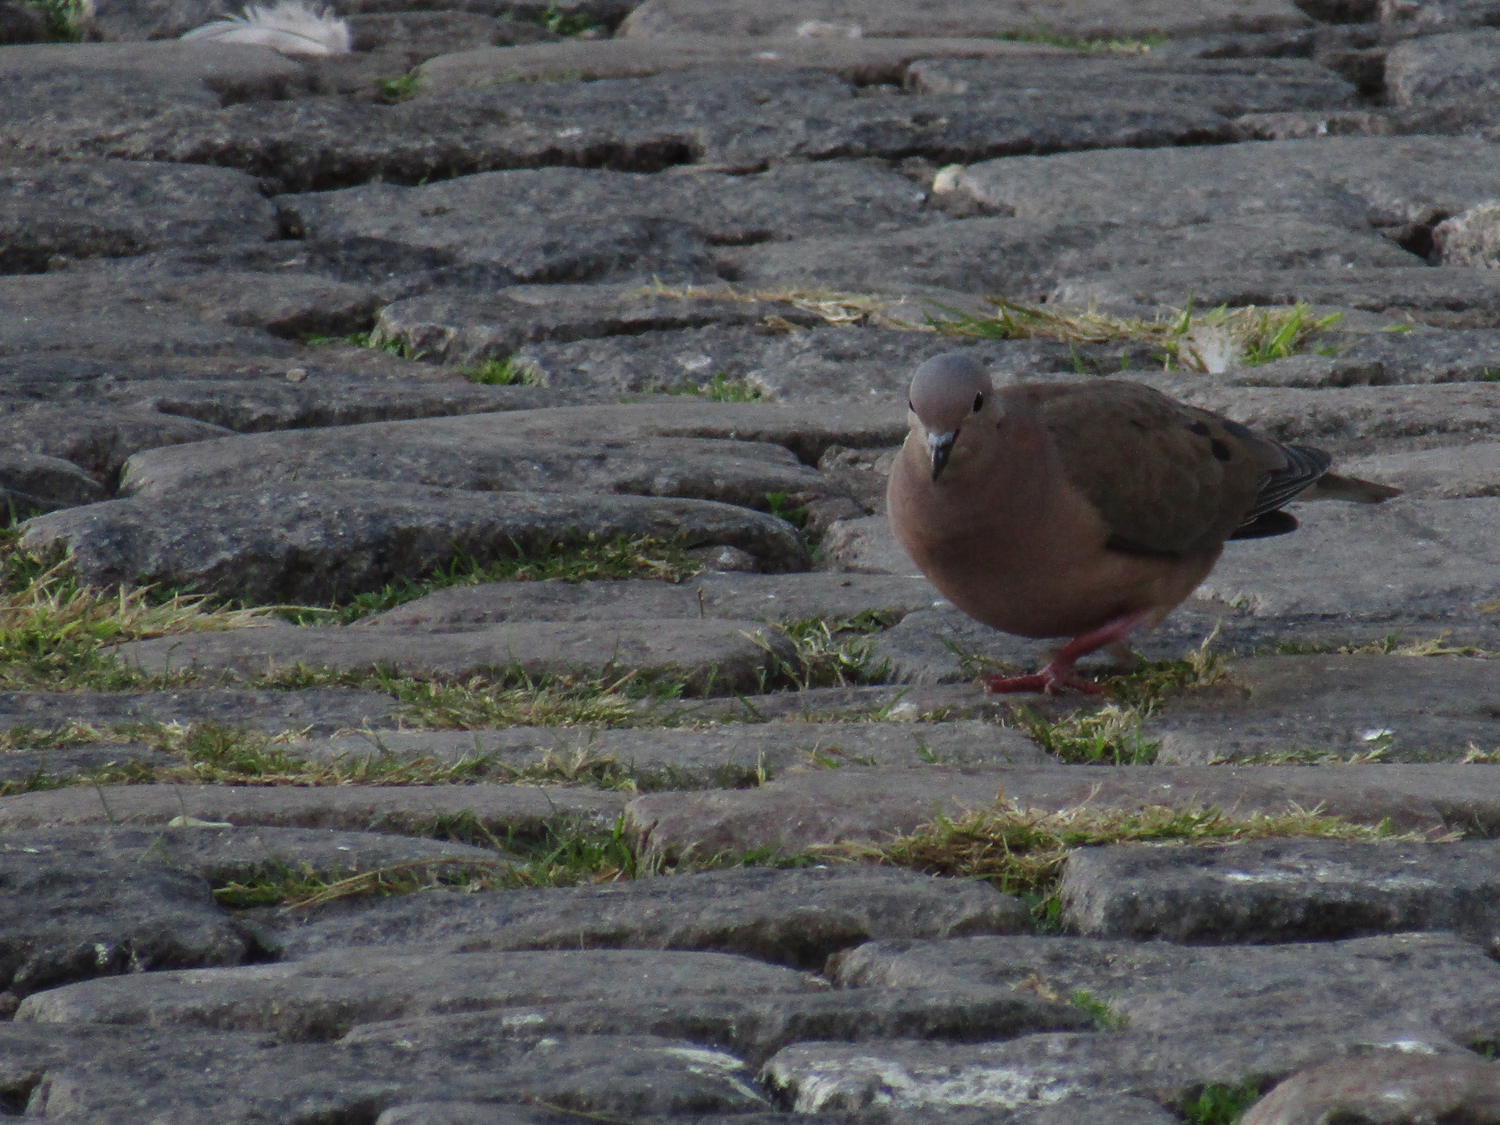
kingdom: Animalia
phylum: Chordata
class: Aves
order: Columbiformes
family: Columbidae
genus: Zenaida
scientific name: Zenaida auriculata
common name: Eared dove
